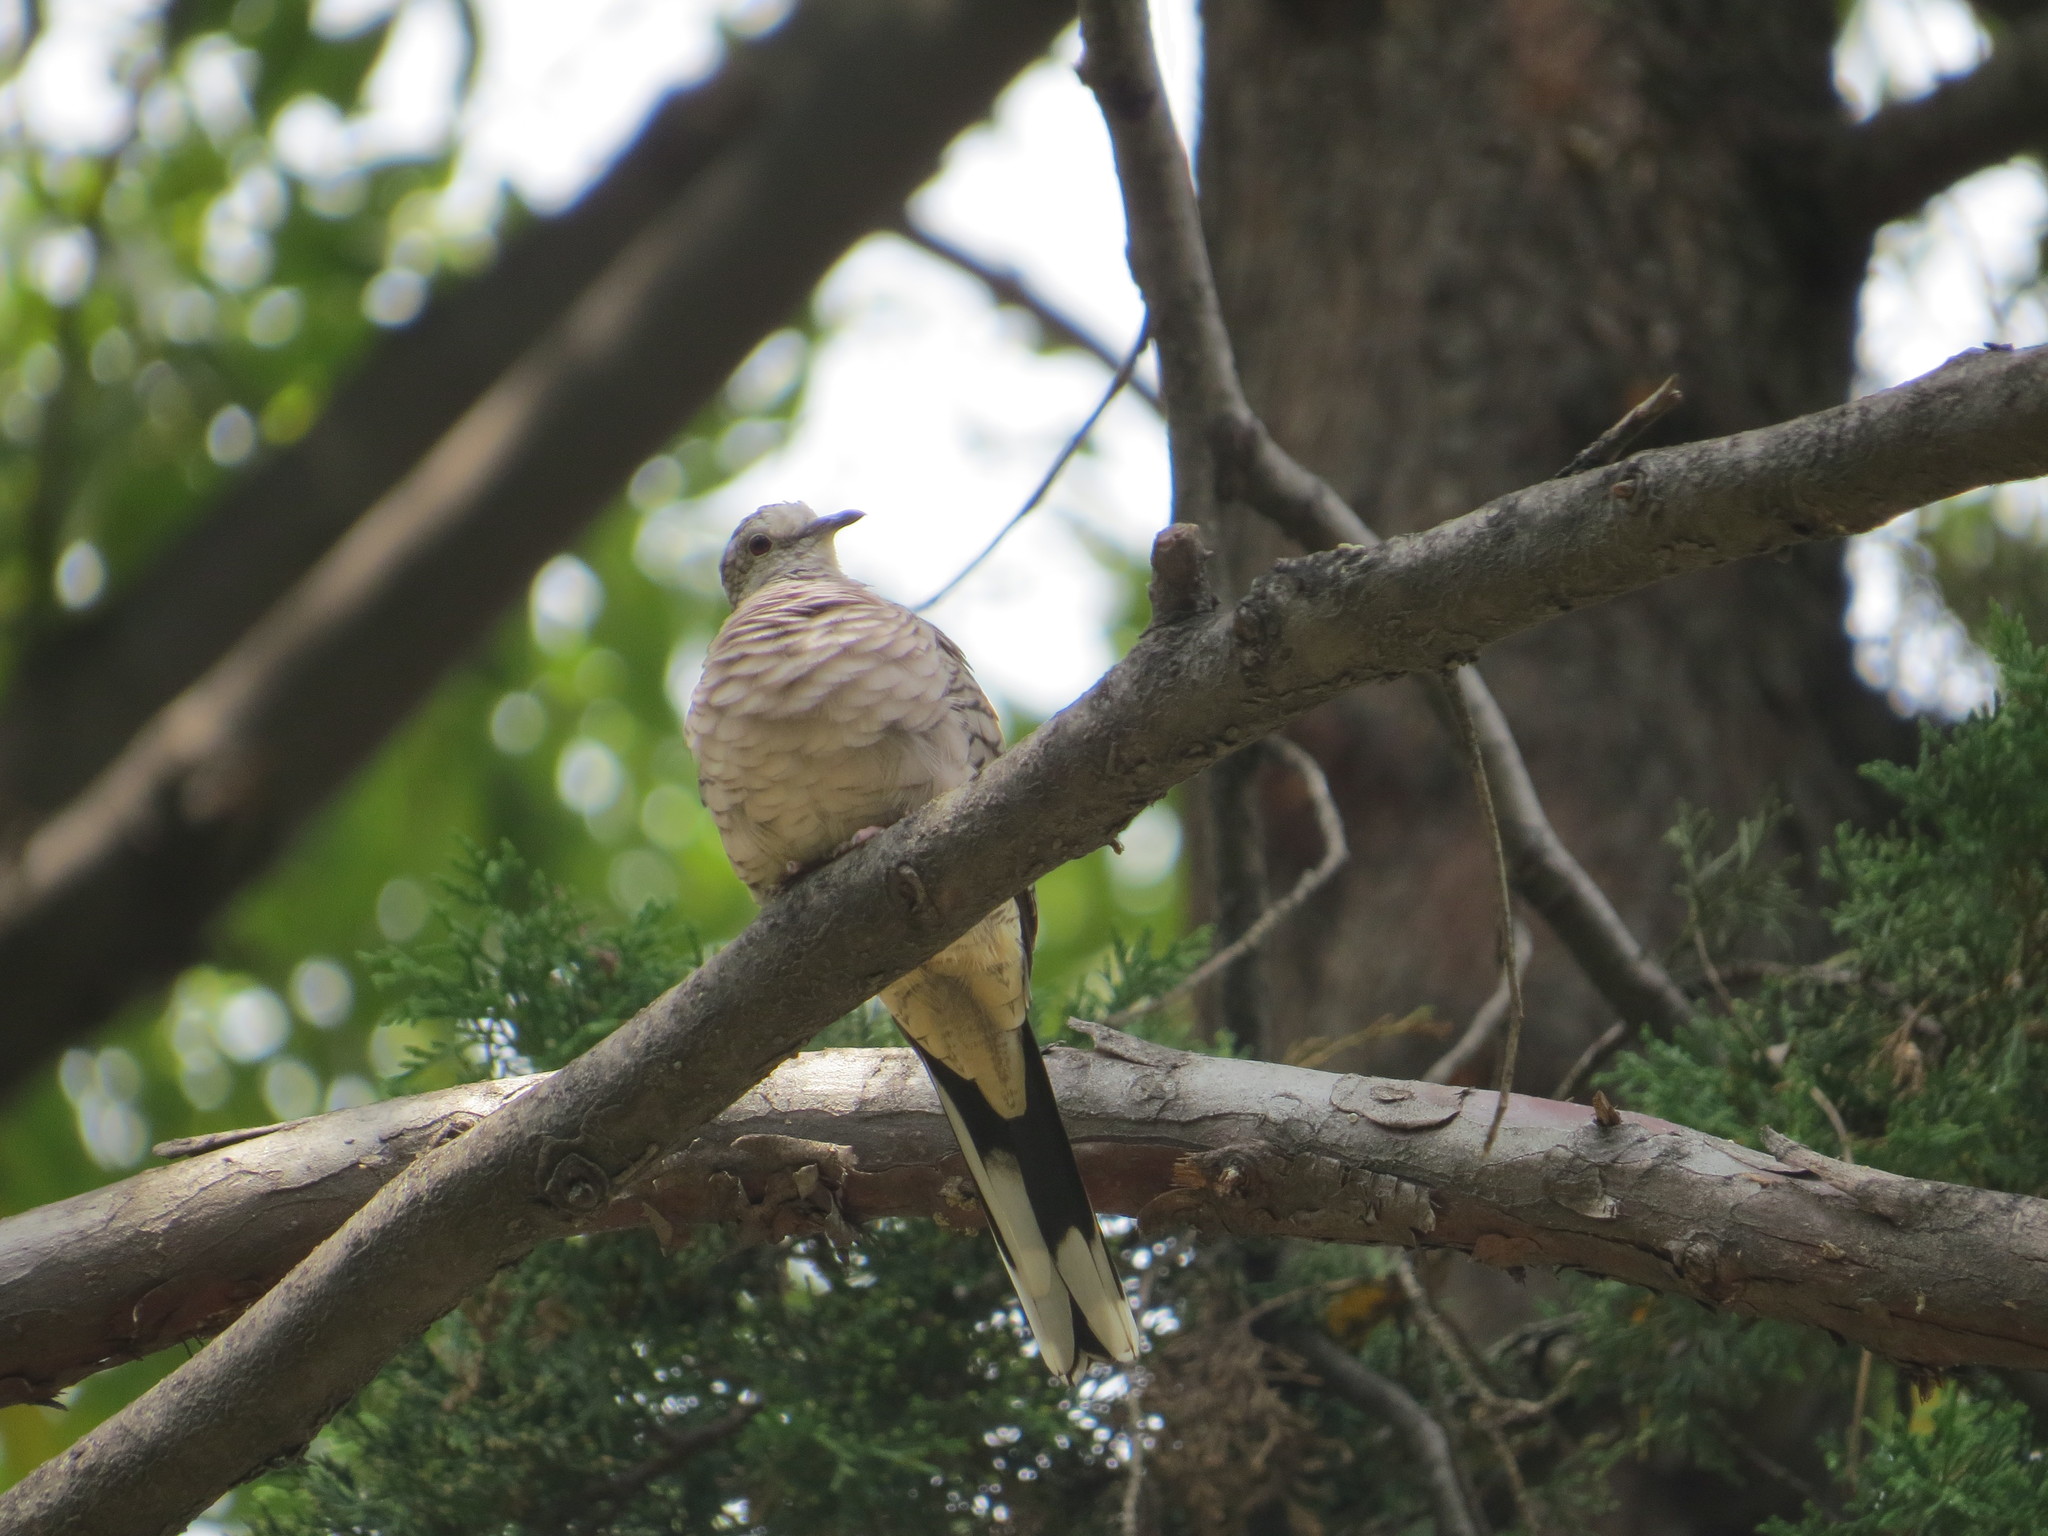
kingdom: Animalia
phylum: Chordata
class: Aves
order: Columbiformes
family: Columbidae
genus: Columbina
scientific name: Columbina inca
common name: Inca dove
